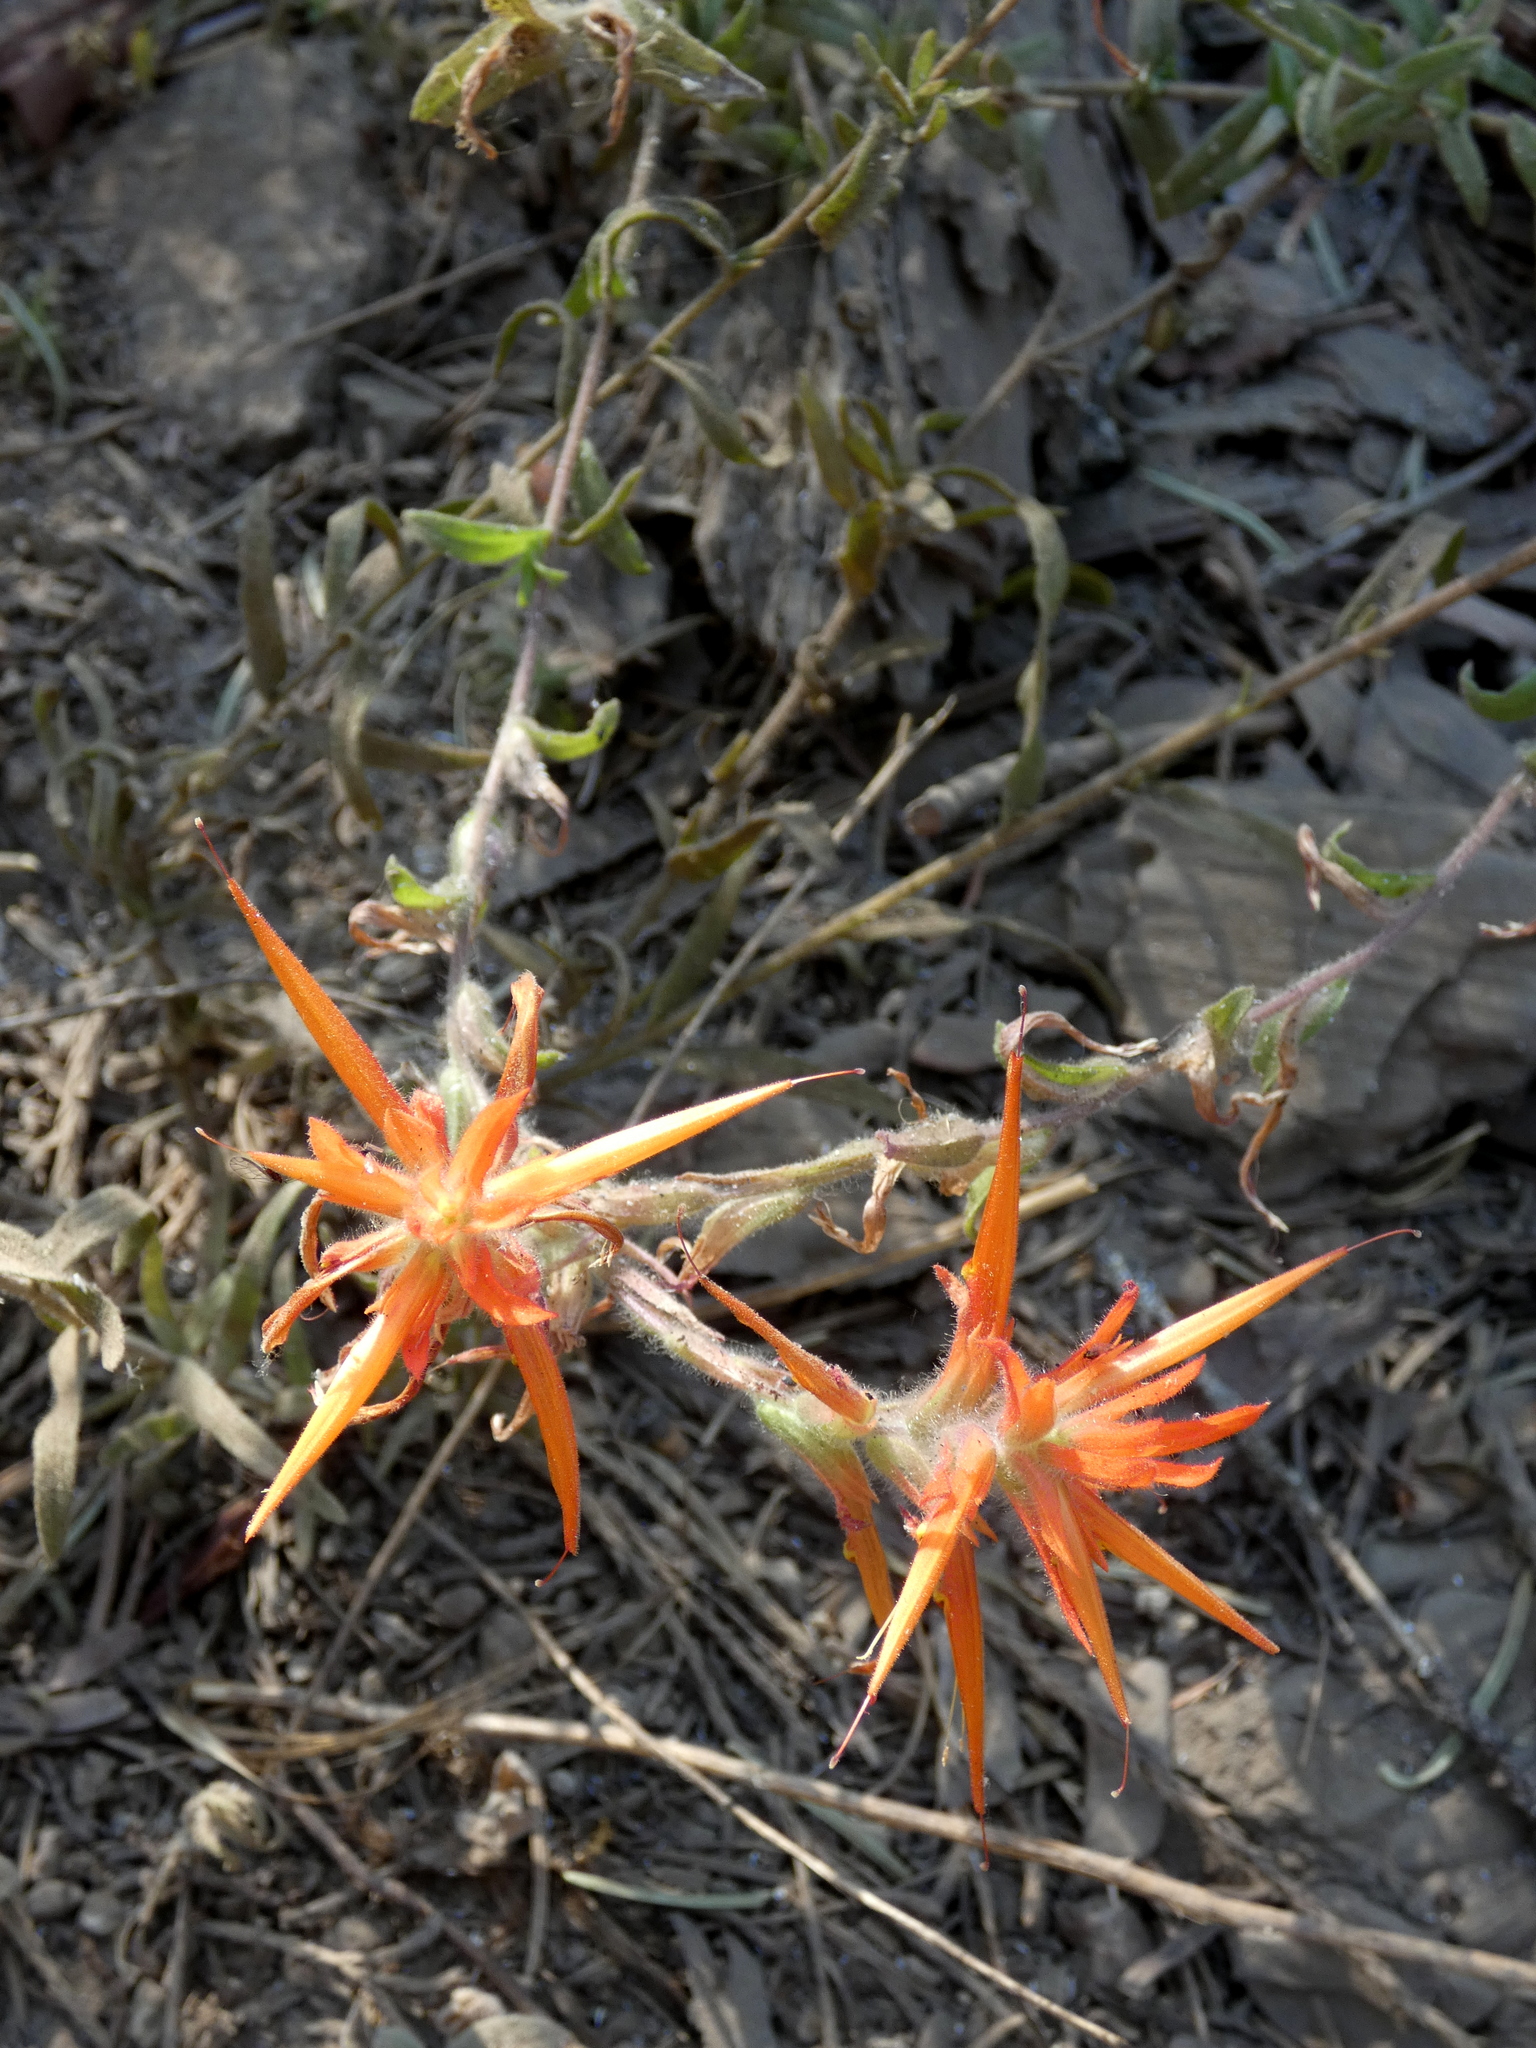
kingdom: Plantae
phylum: Tracheophyta
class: Magnoliopsida
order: Lamiales
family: Orobanchaceae
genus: Castilleja
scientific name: Castilleja disticha
